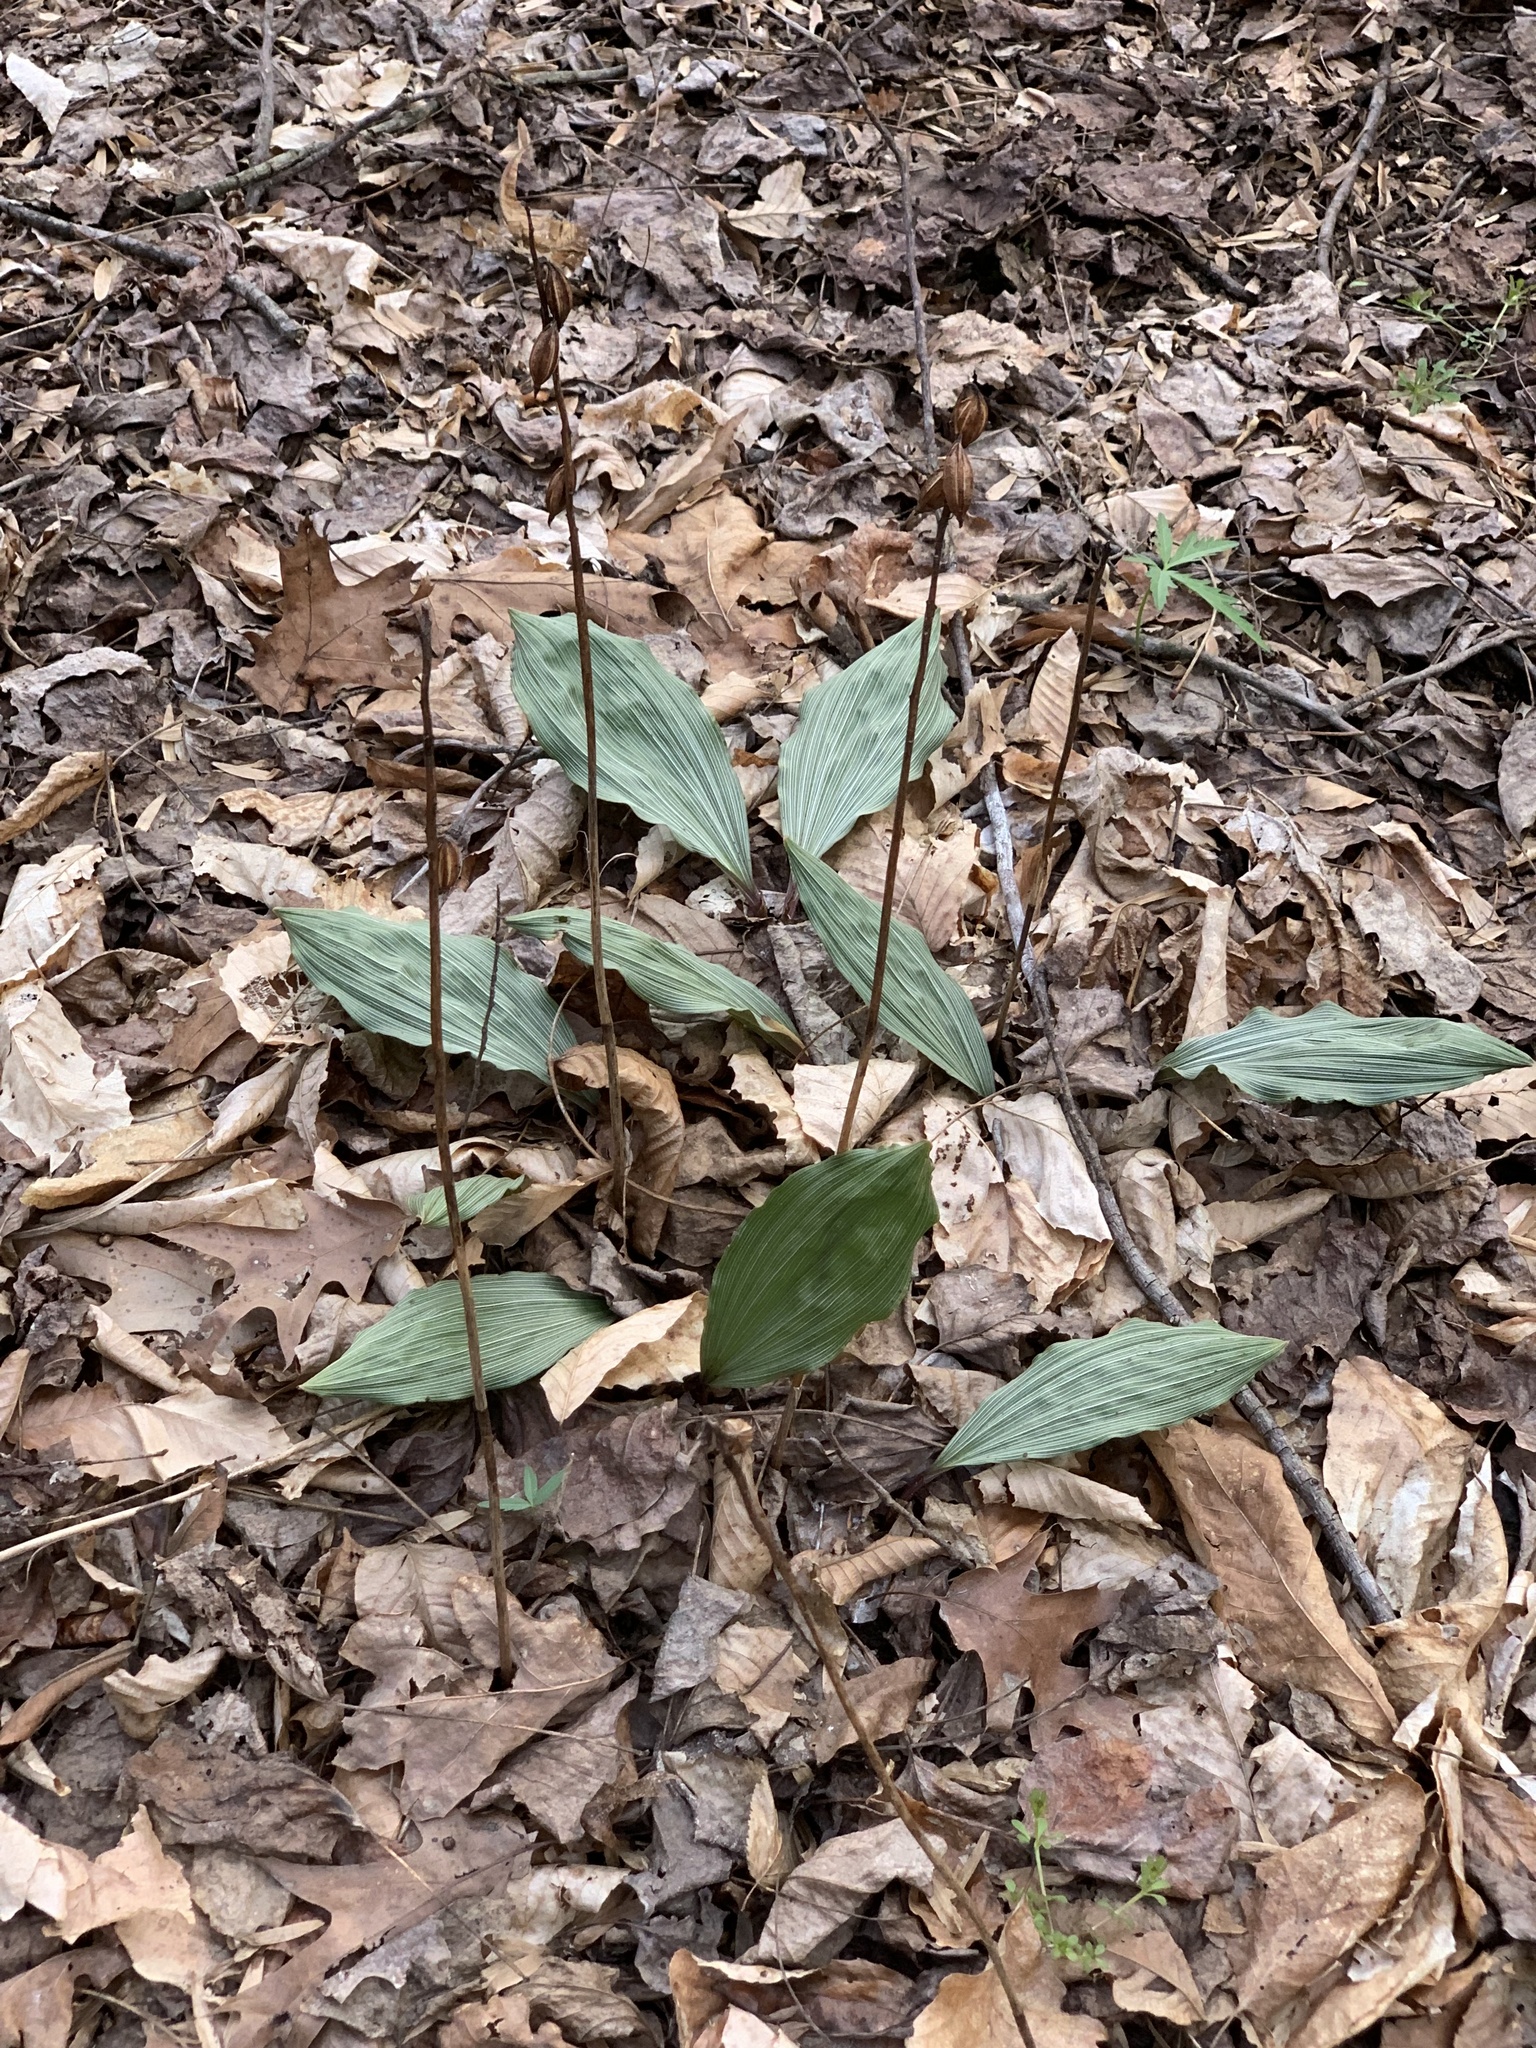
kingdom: Plantae
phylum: Tracheophyta
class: Liliopsida
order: Asparagales
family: Orchidaceae
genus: Aplectrum
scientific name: Aplectrum hyemale
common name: Adam-and-eve
